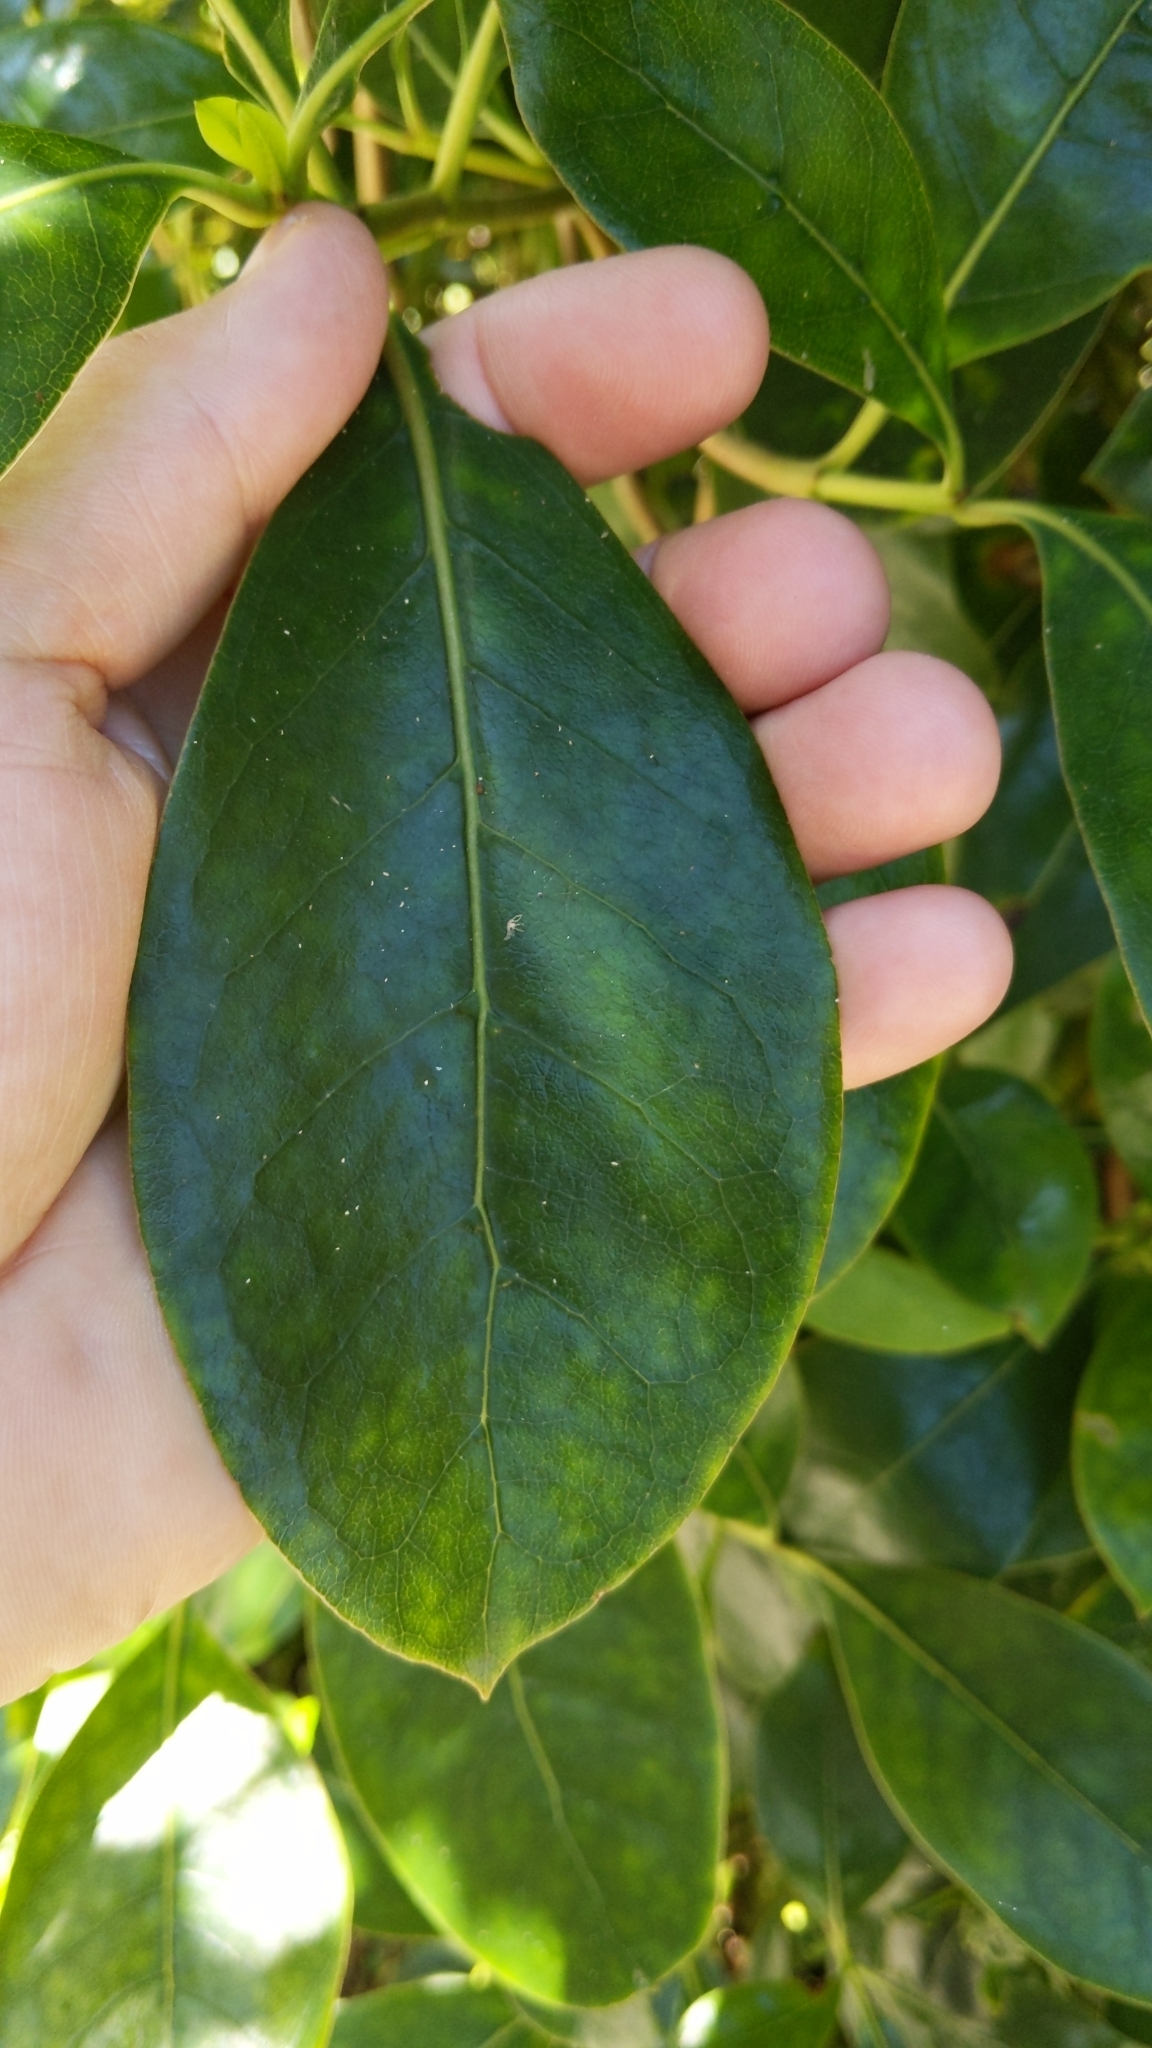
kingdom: Plantae
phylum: Tracheophyta
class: Magnoliopsida
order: Gentianales
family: Rubiaceae
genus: Coprosma
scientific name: Coprosma lucida
